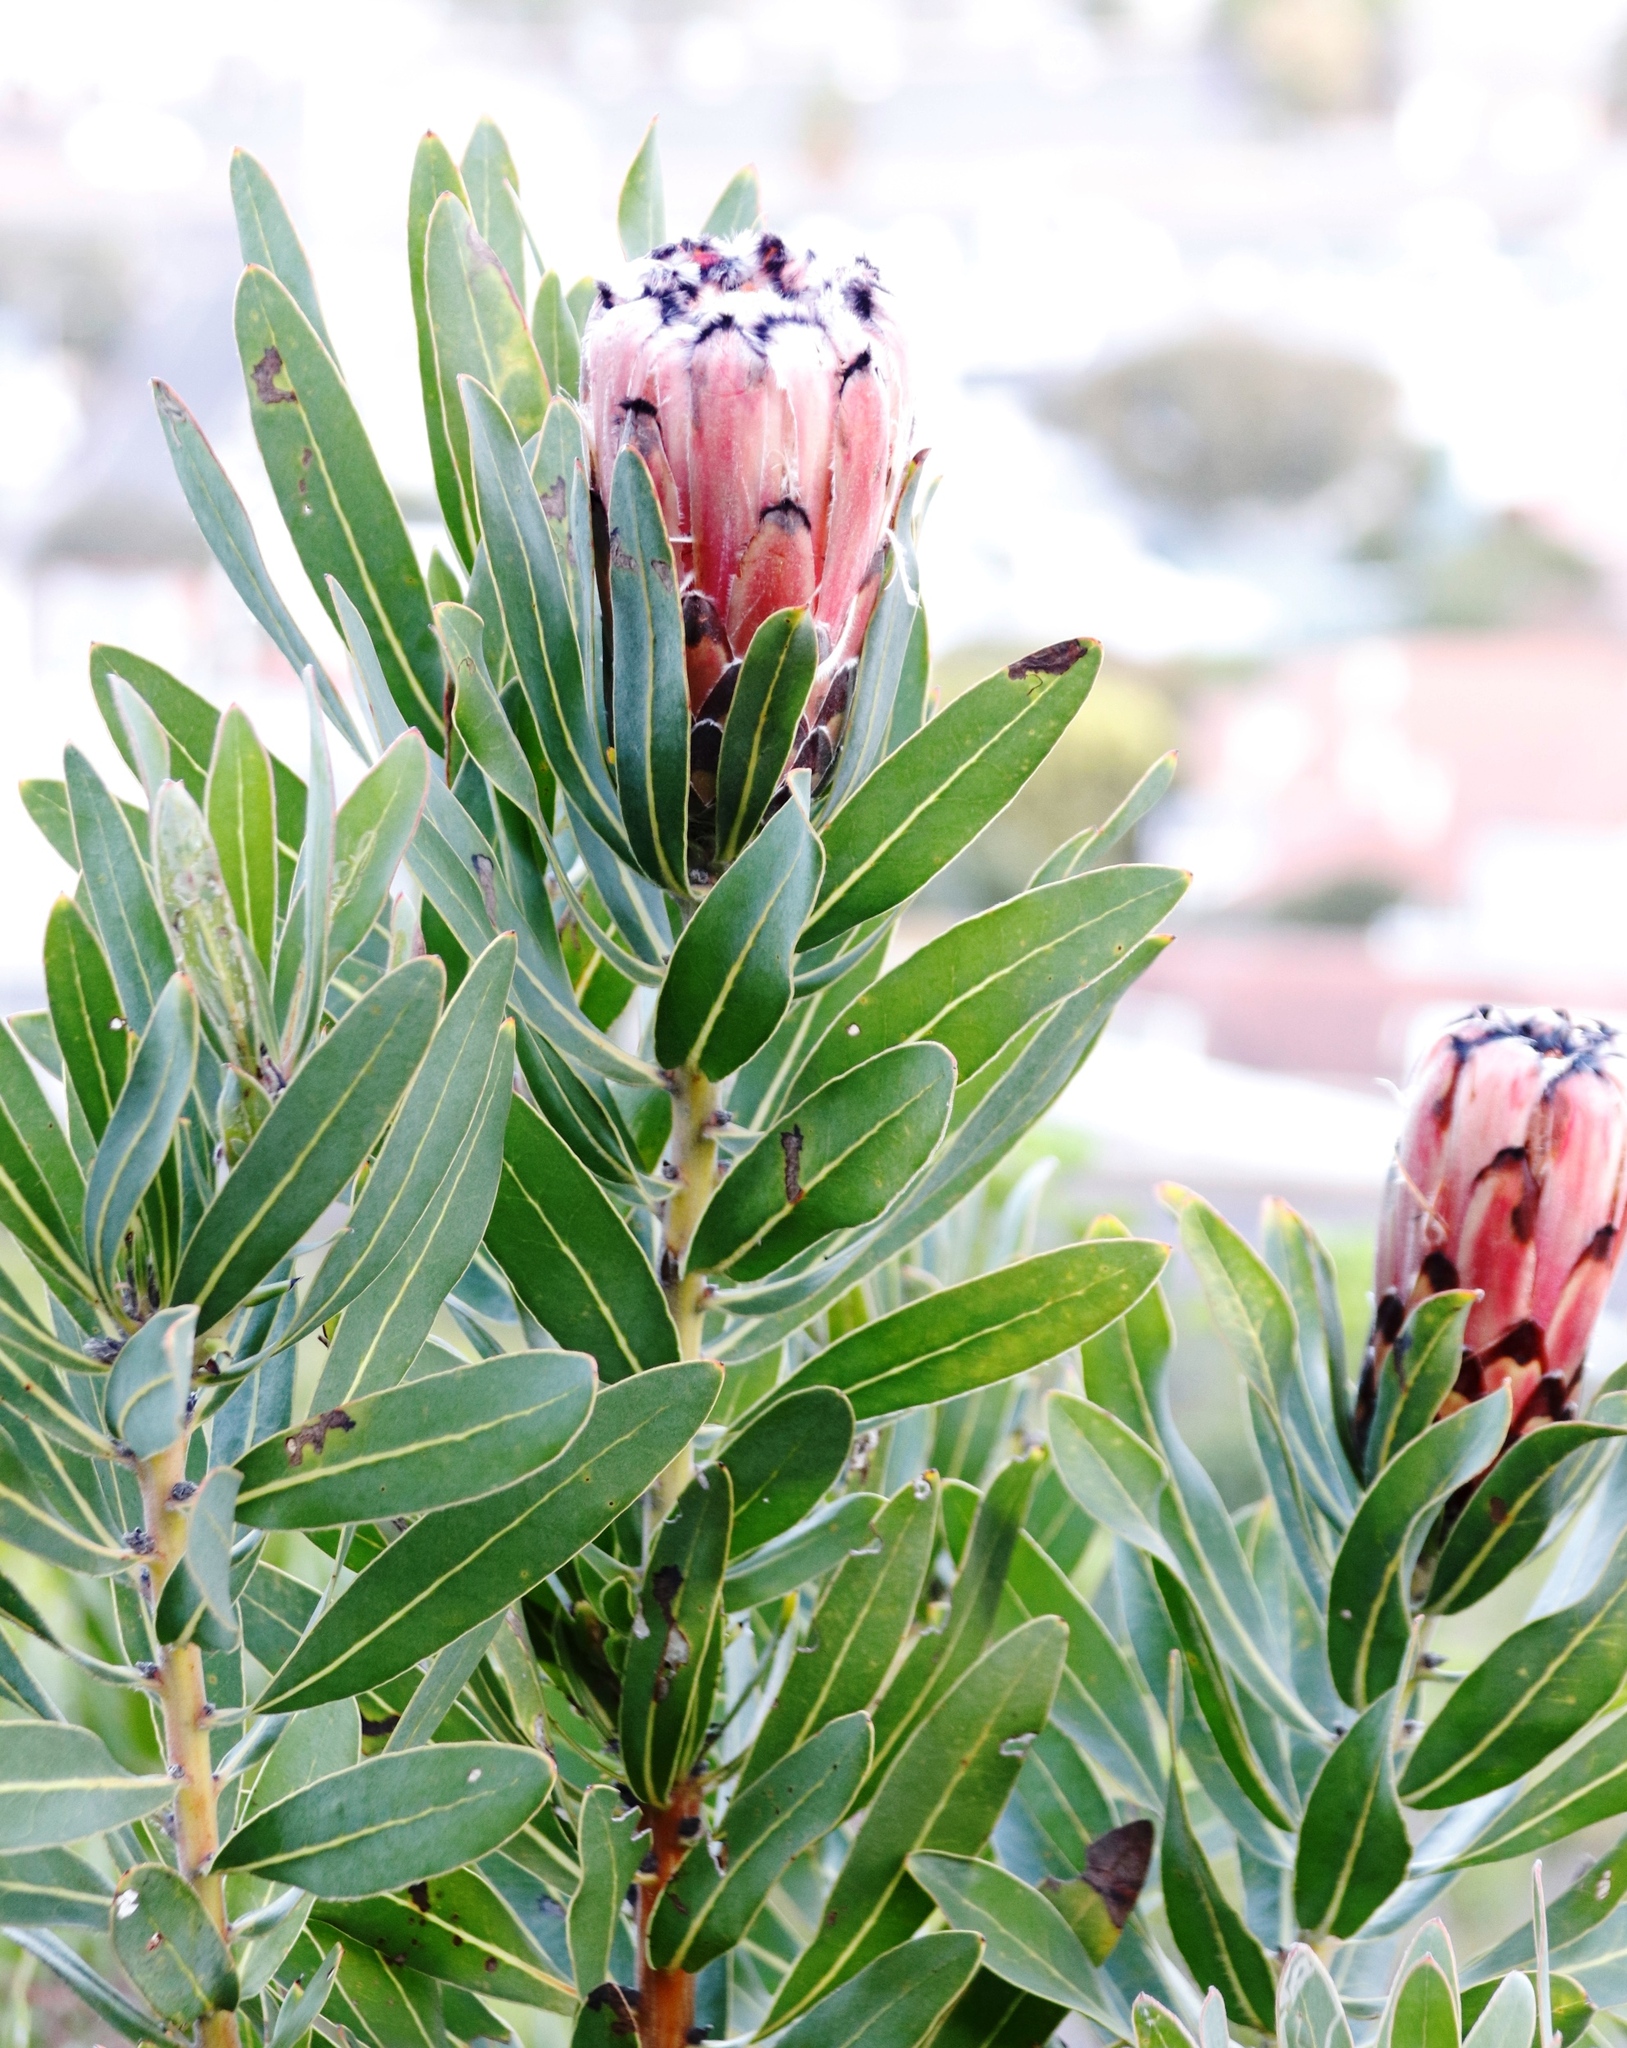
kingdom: Plantae
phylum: Tracheophyta
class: Magnoliopsida
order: Proteales
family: Proteaceae
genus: Protea
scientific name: Protea
